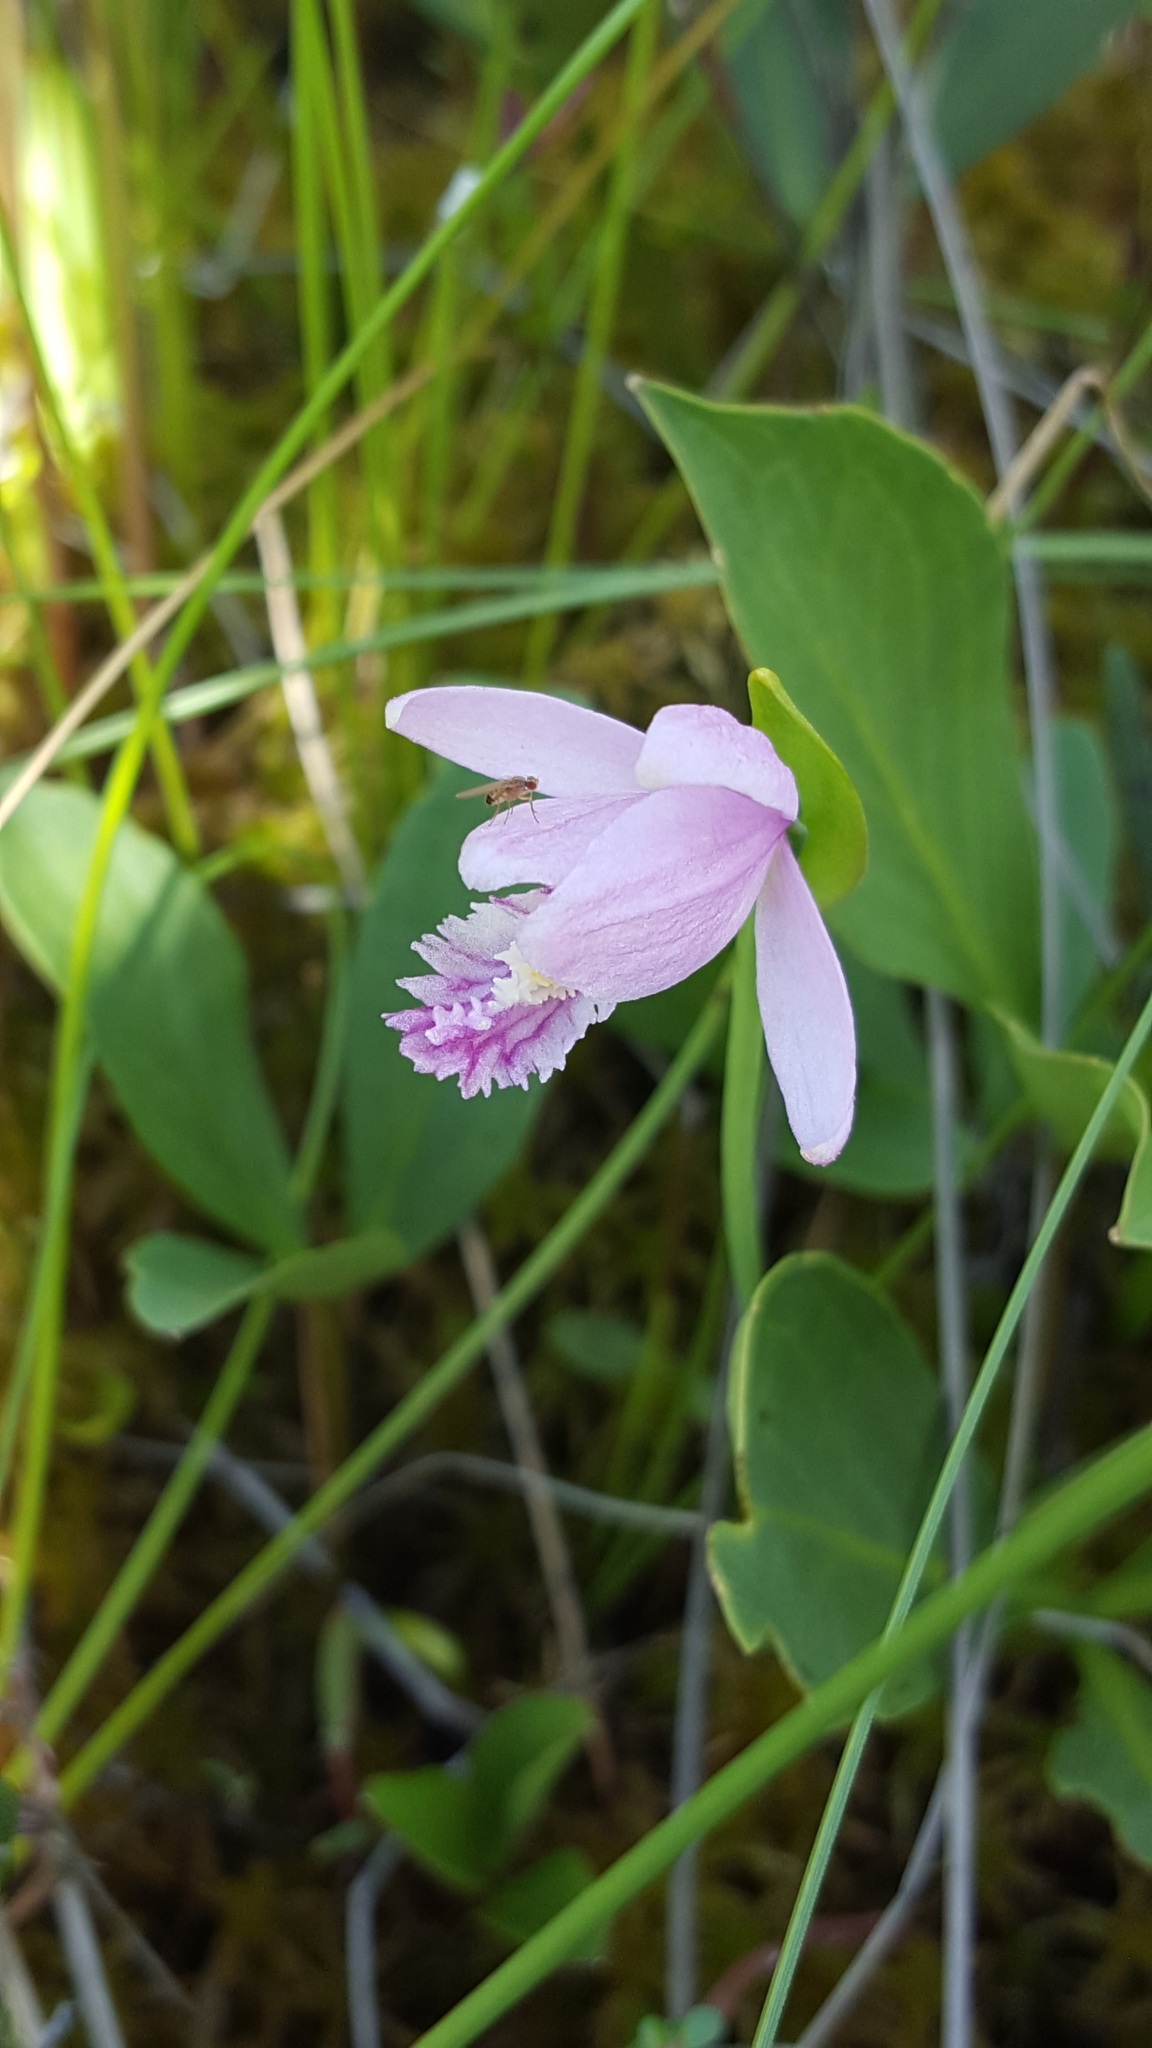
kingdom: Plantae
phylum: Tracheophyta
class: Liliopsida
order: Asparagales
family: Orchidaceae
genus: Pogonia
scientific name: Pogonia ophioglossoides
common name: Rose pogonia
